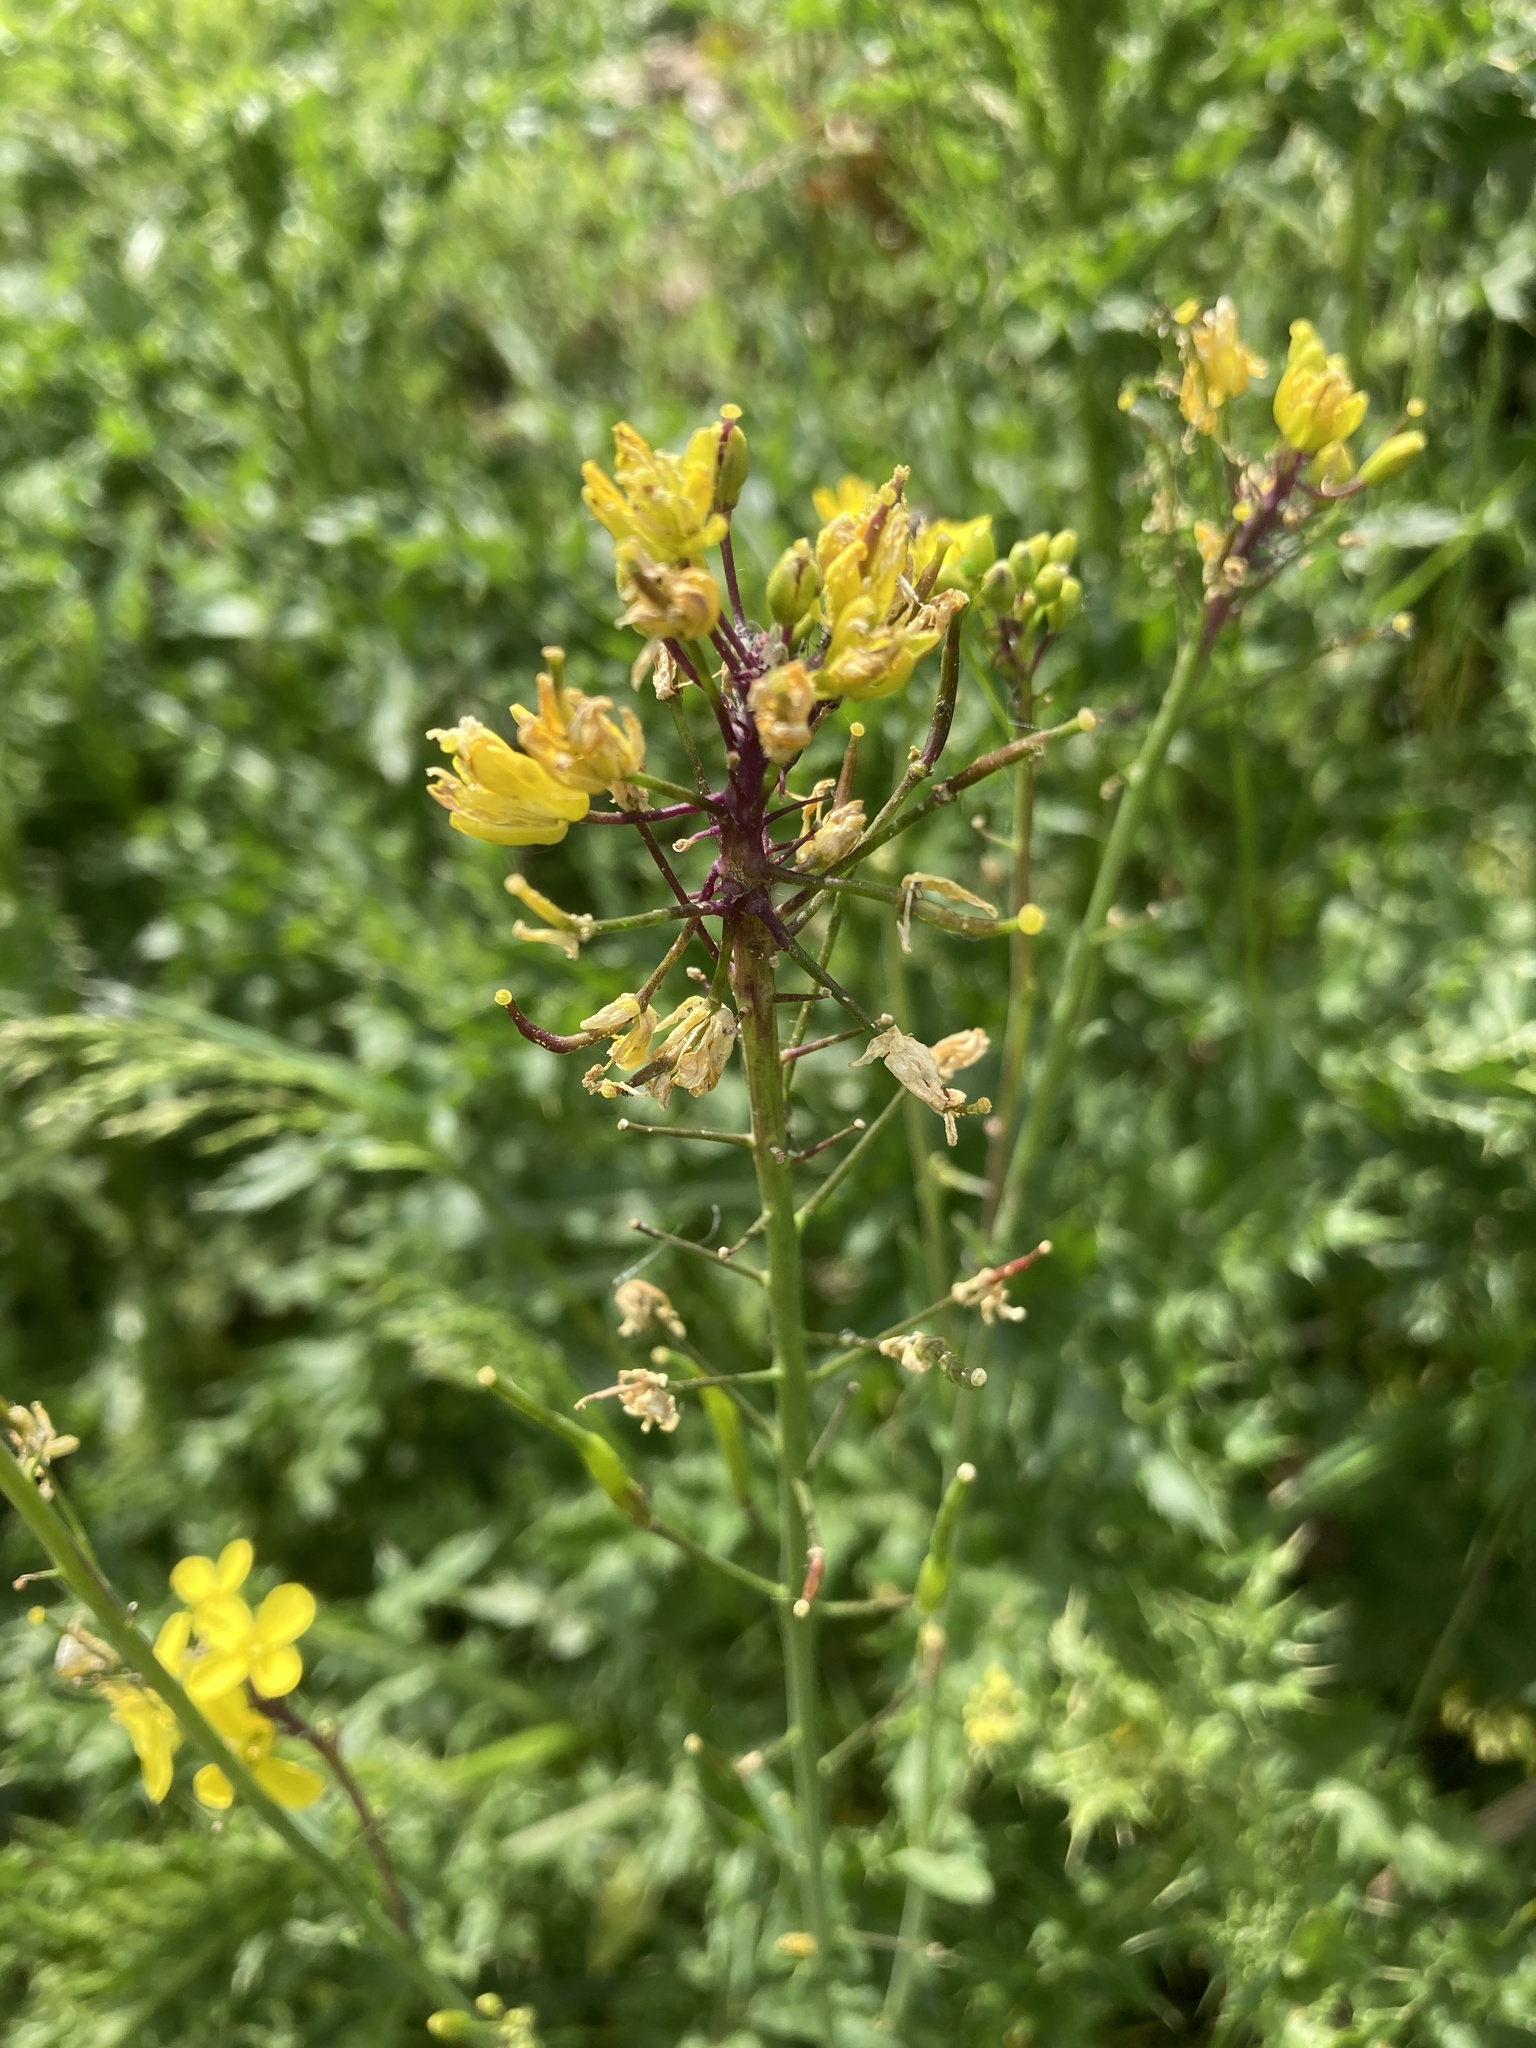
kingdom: Plantae
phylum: Tracheophyta
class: Magnoliopsida
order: Brassicales
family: Brassicaceae
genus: Brassica
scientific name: Brassica rapa
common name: Field mustard
